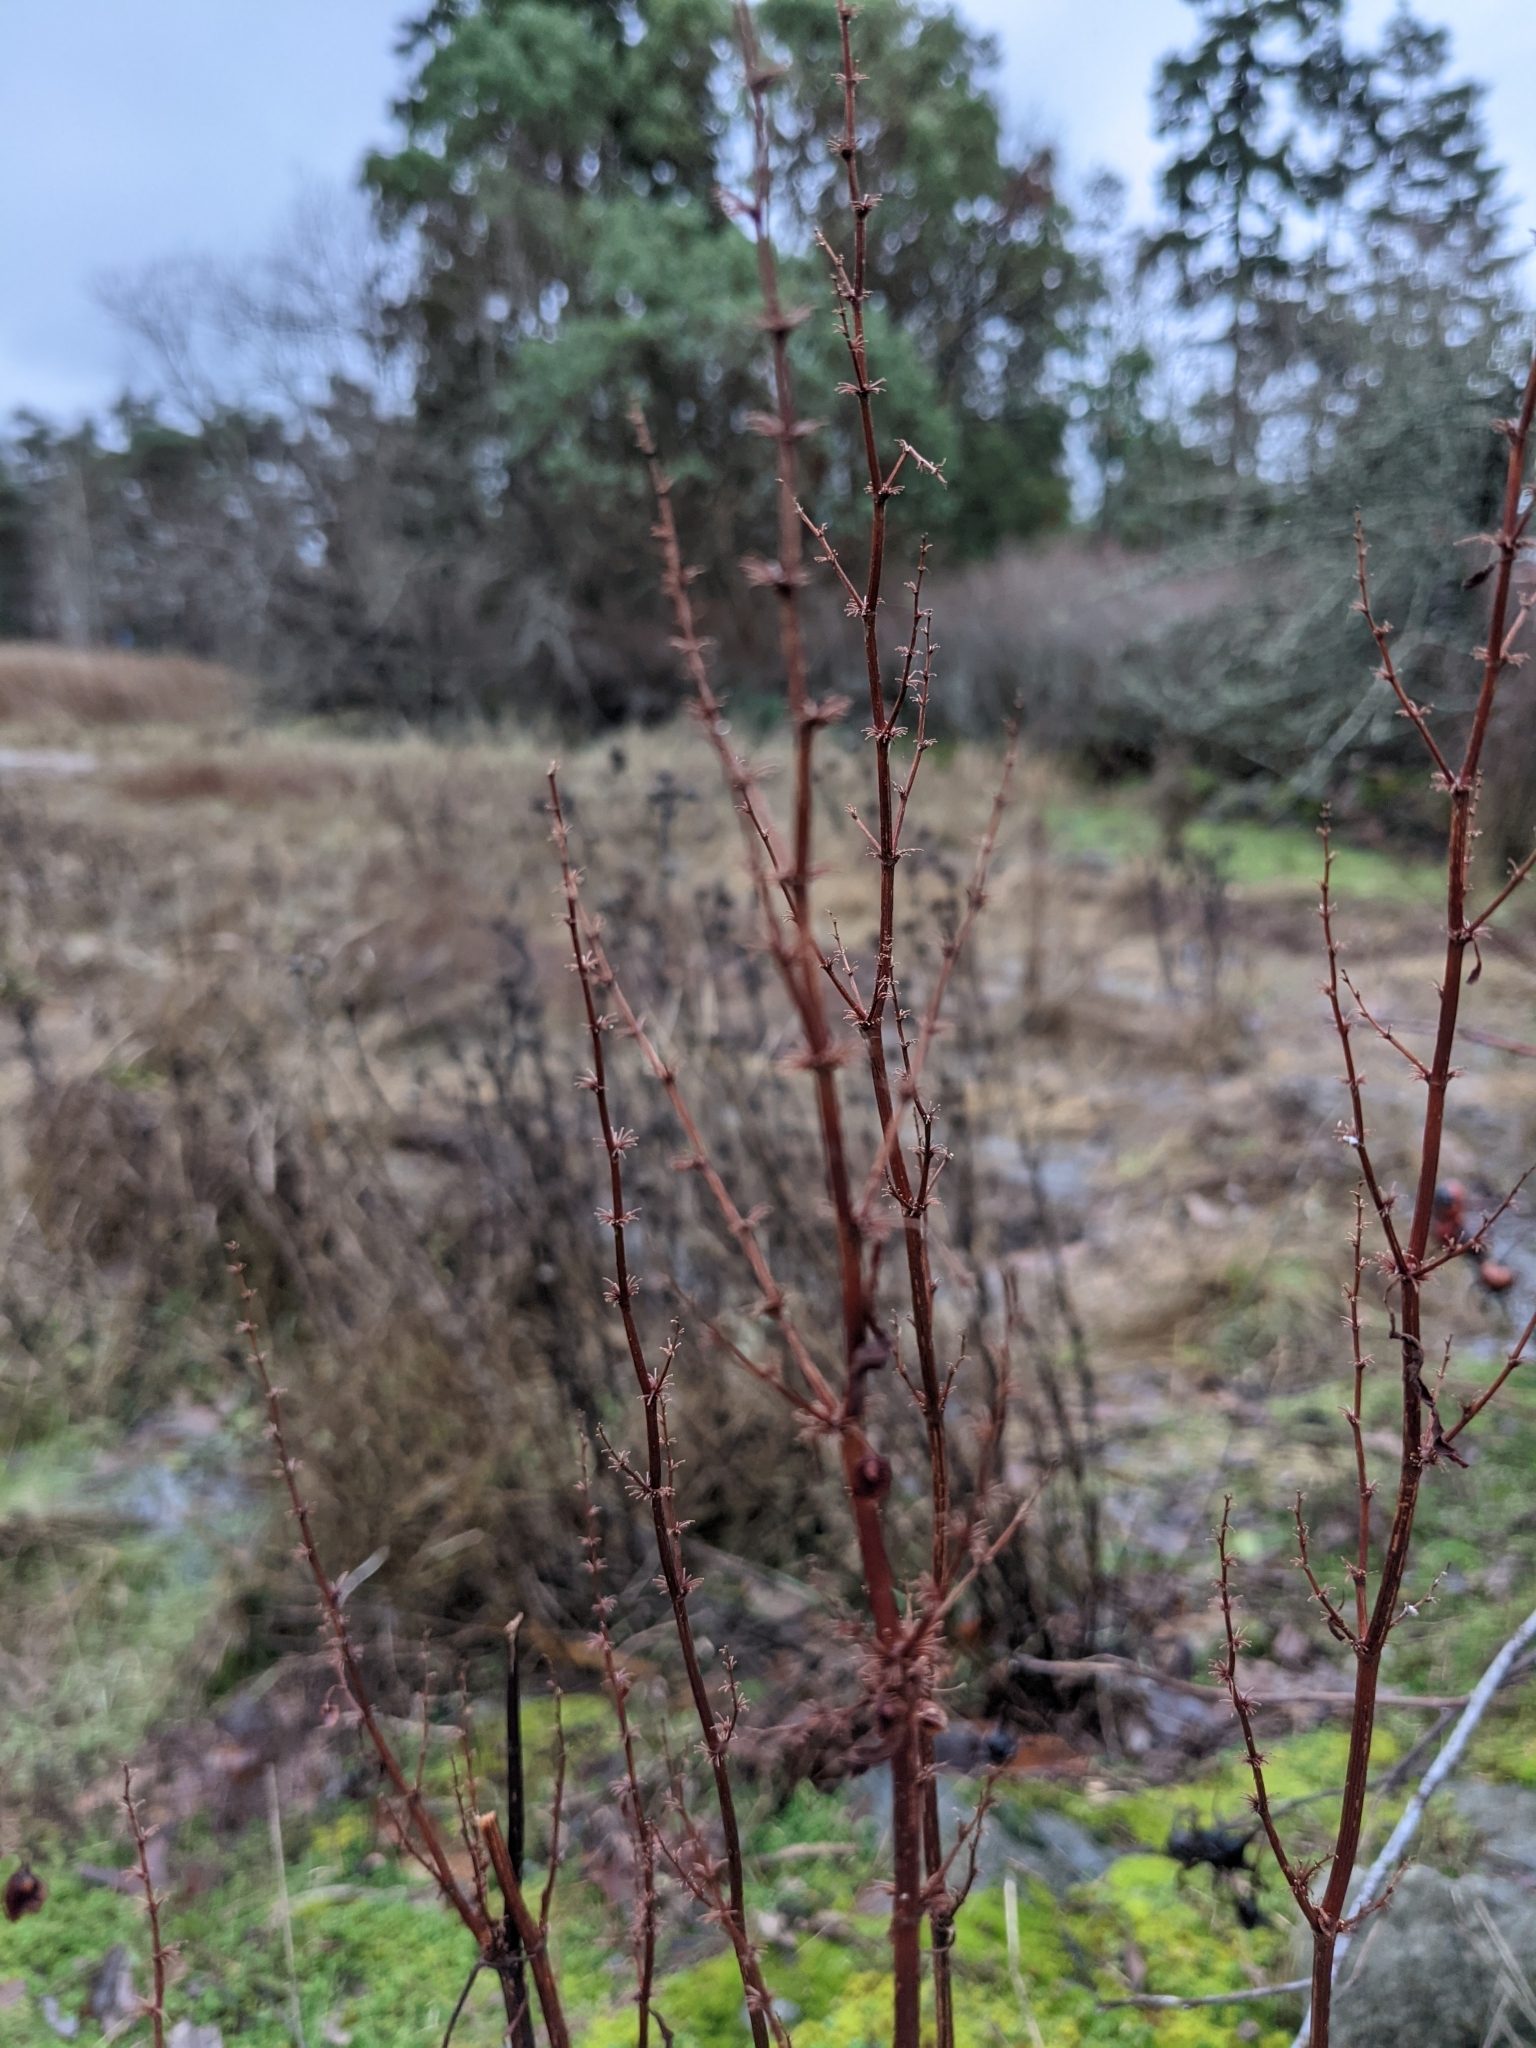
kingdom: Plantae
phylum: Tracheophyta
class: Magnoliopsida
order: Rosales
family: Rosaceae
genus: Rosa
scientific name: Rosa nutkana
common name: Nootka rose
